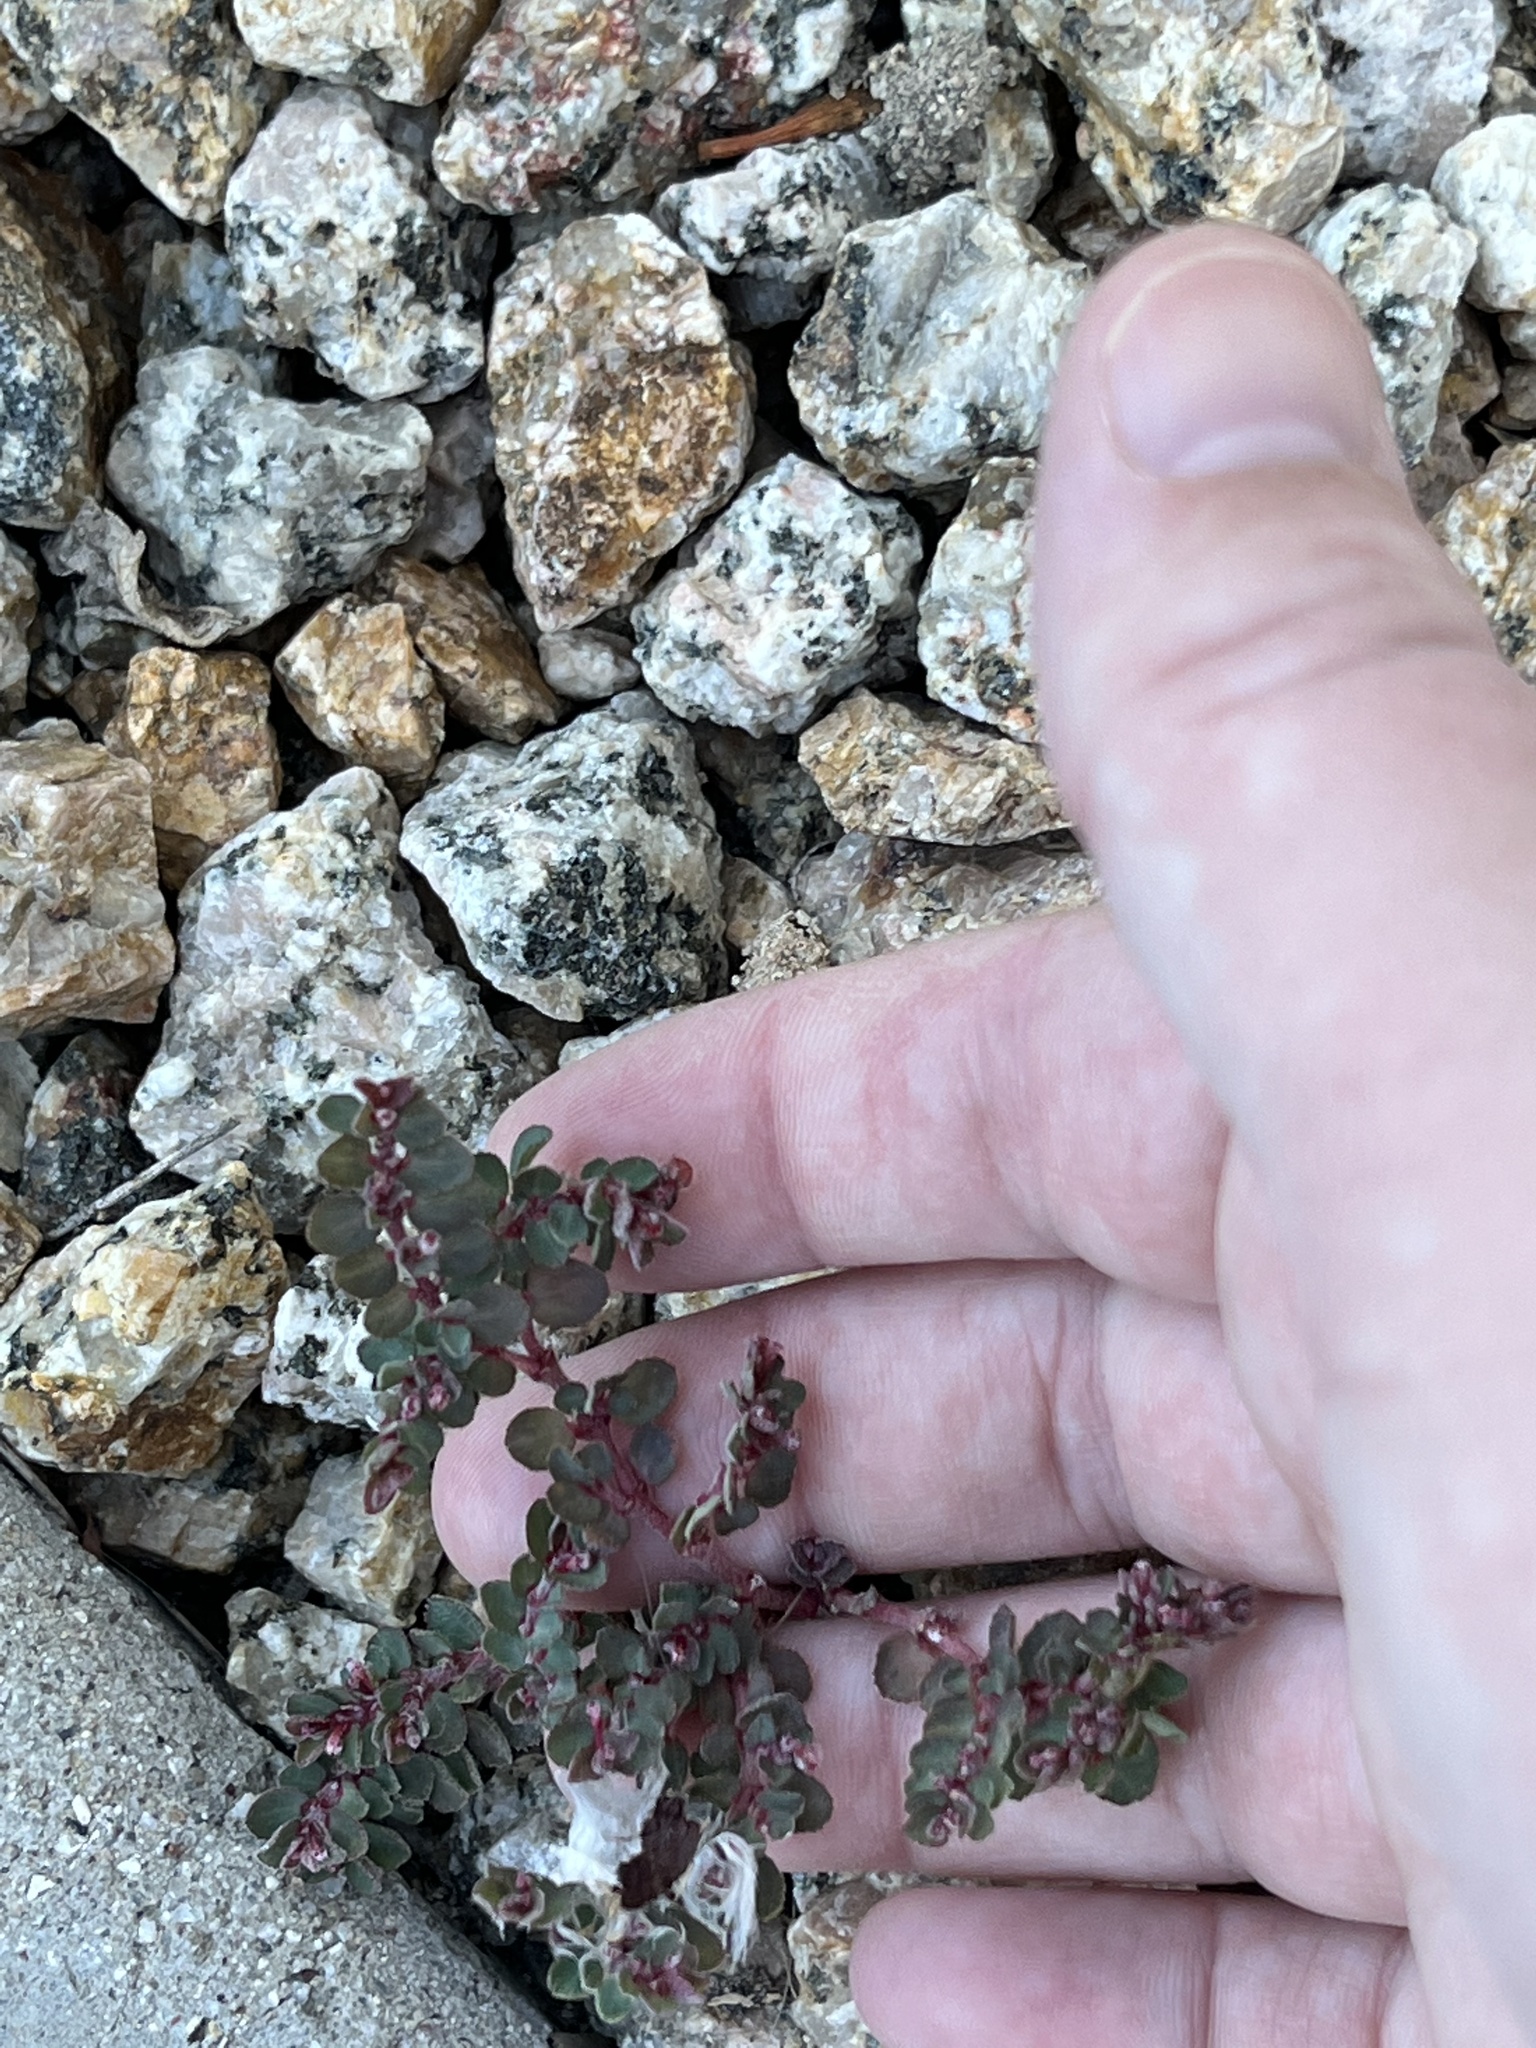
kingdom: Plantae
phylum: Tracheophyta
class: Magnoliopsida
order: Malpighiales
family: Euphorbiaceae
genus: Euphorbia
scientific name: Euphorbia prostrata
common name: Prostrate sandmat
